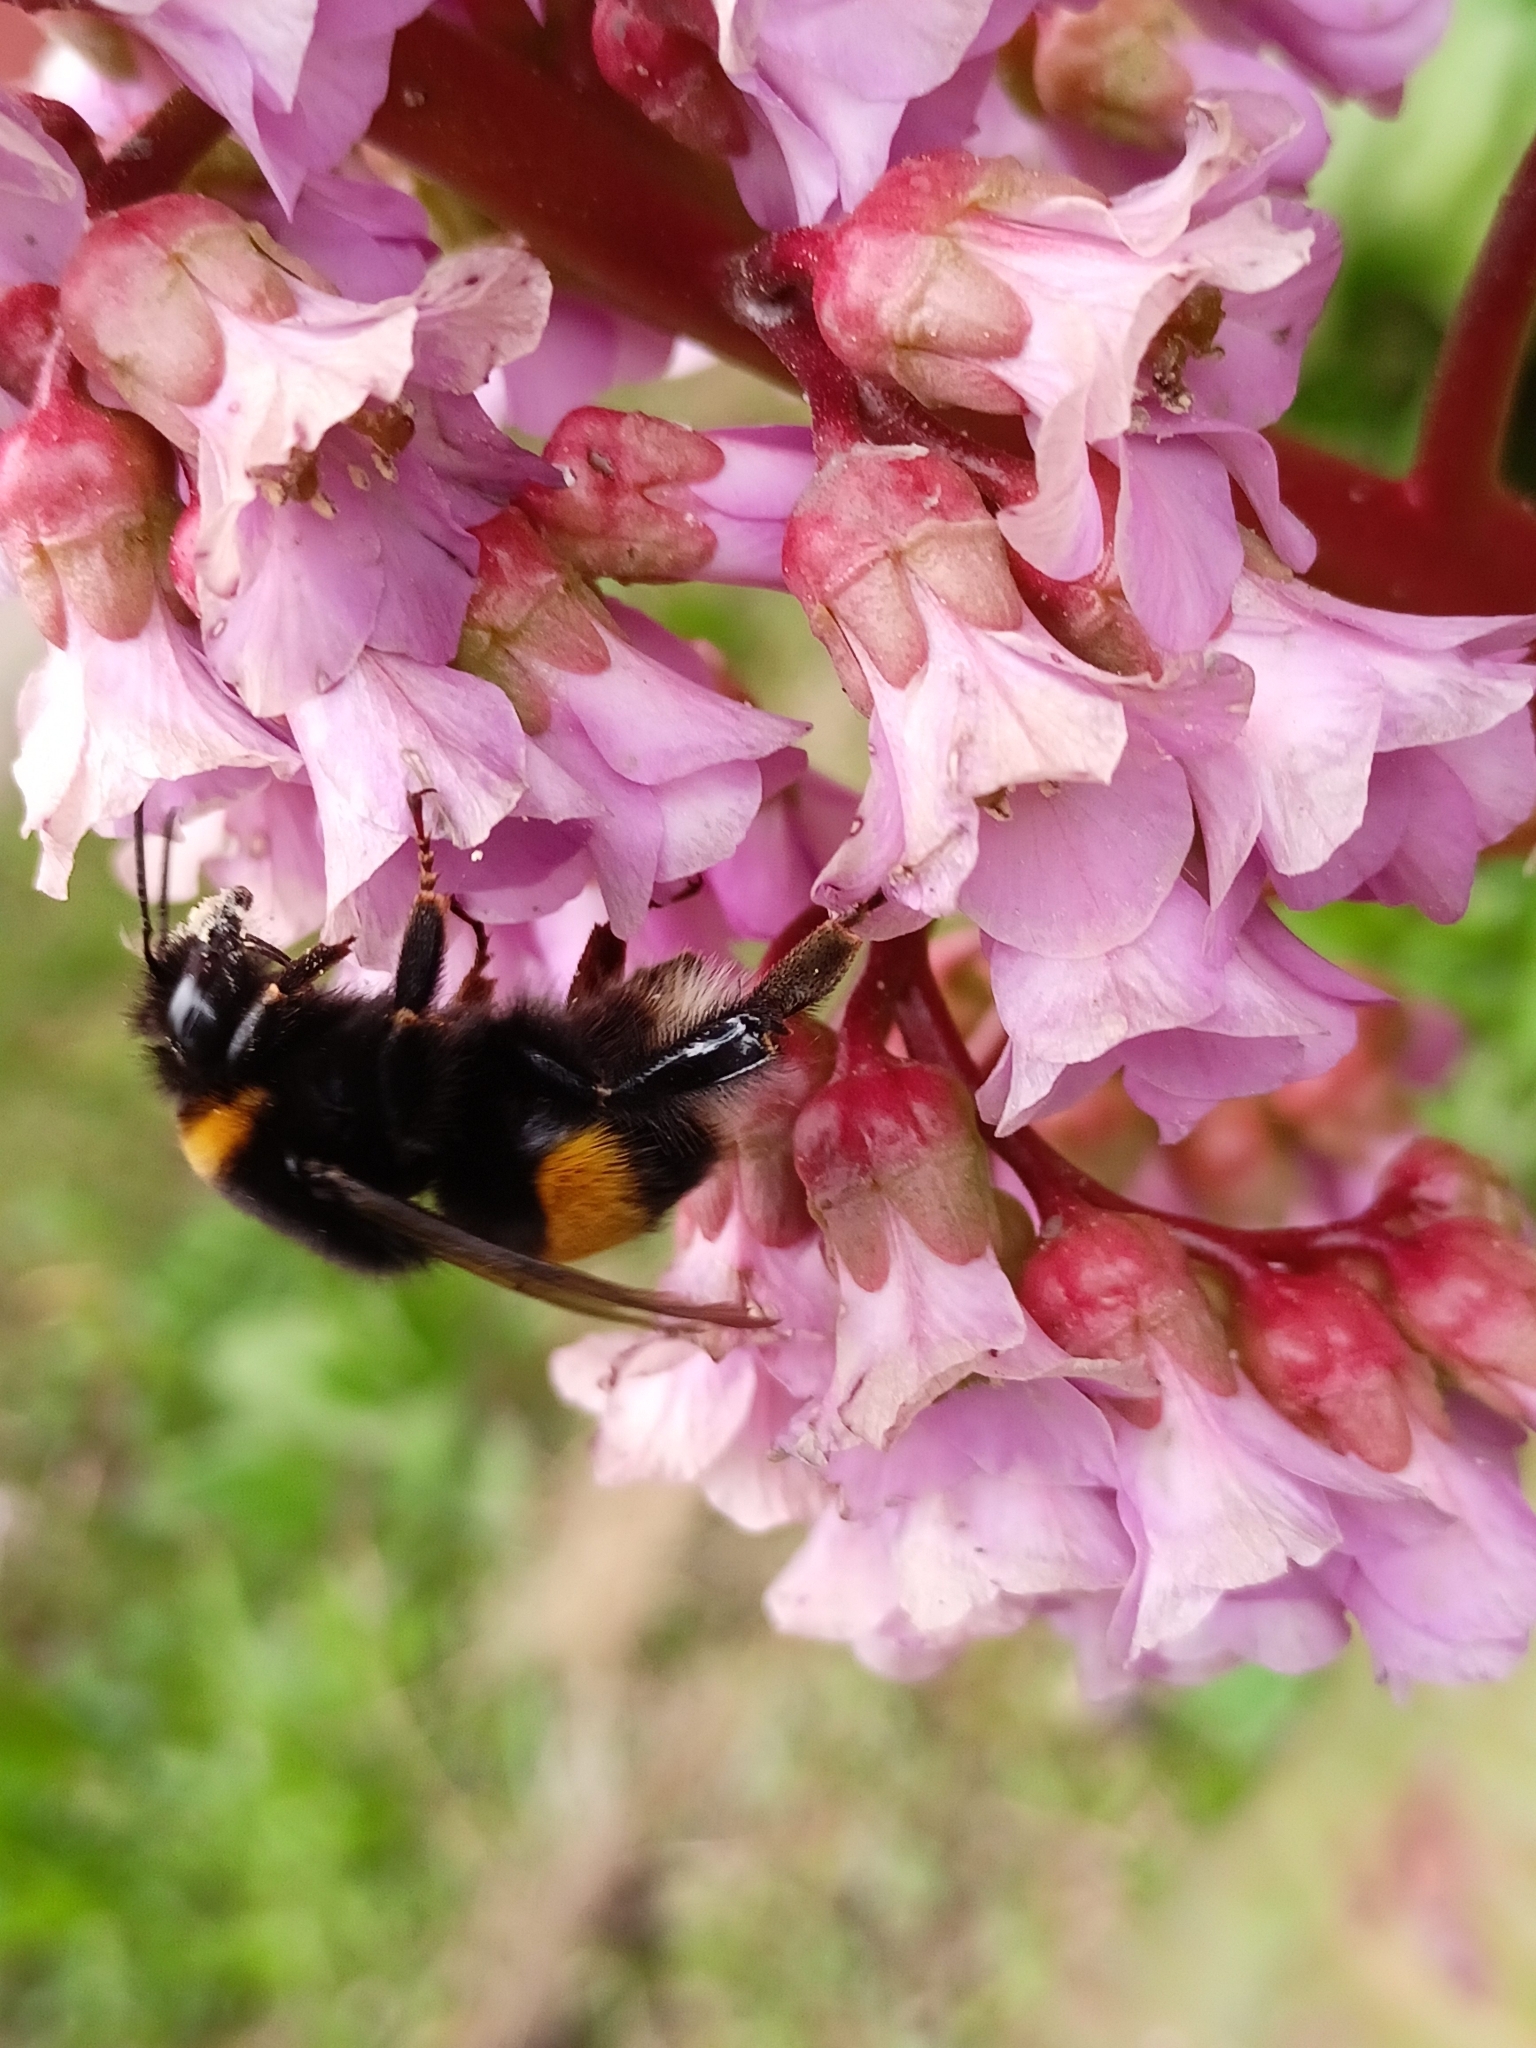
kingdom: Animalia
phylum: Arthropoda
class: Insecta
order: Hymenoptera
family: Apidae
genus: Bombus
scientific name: Bombus terrestris
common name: Buff-tailed bumblebee
